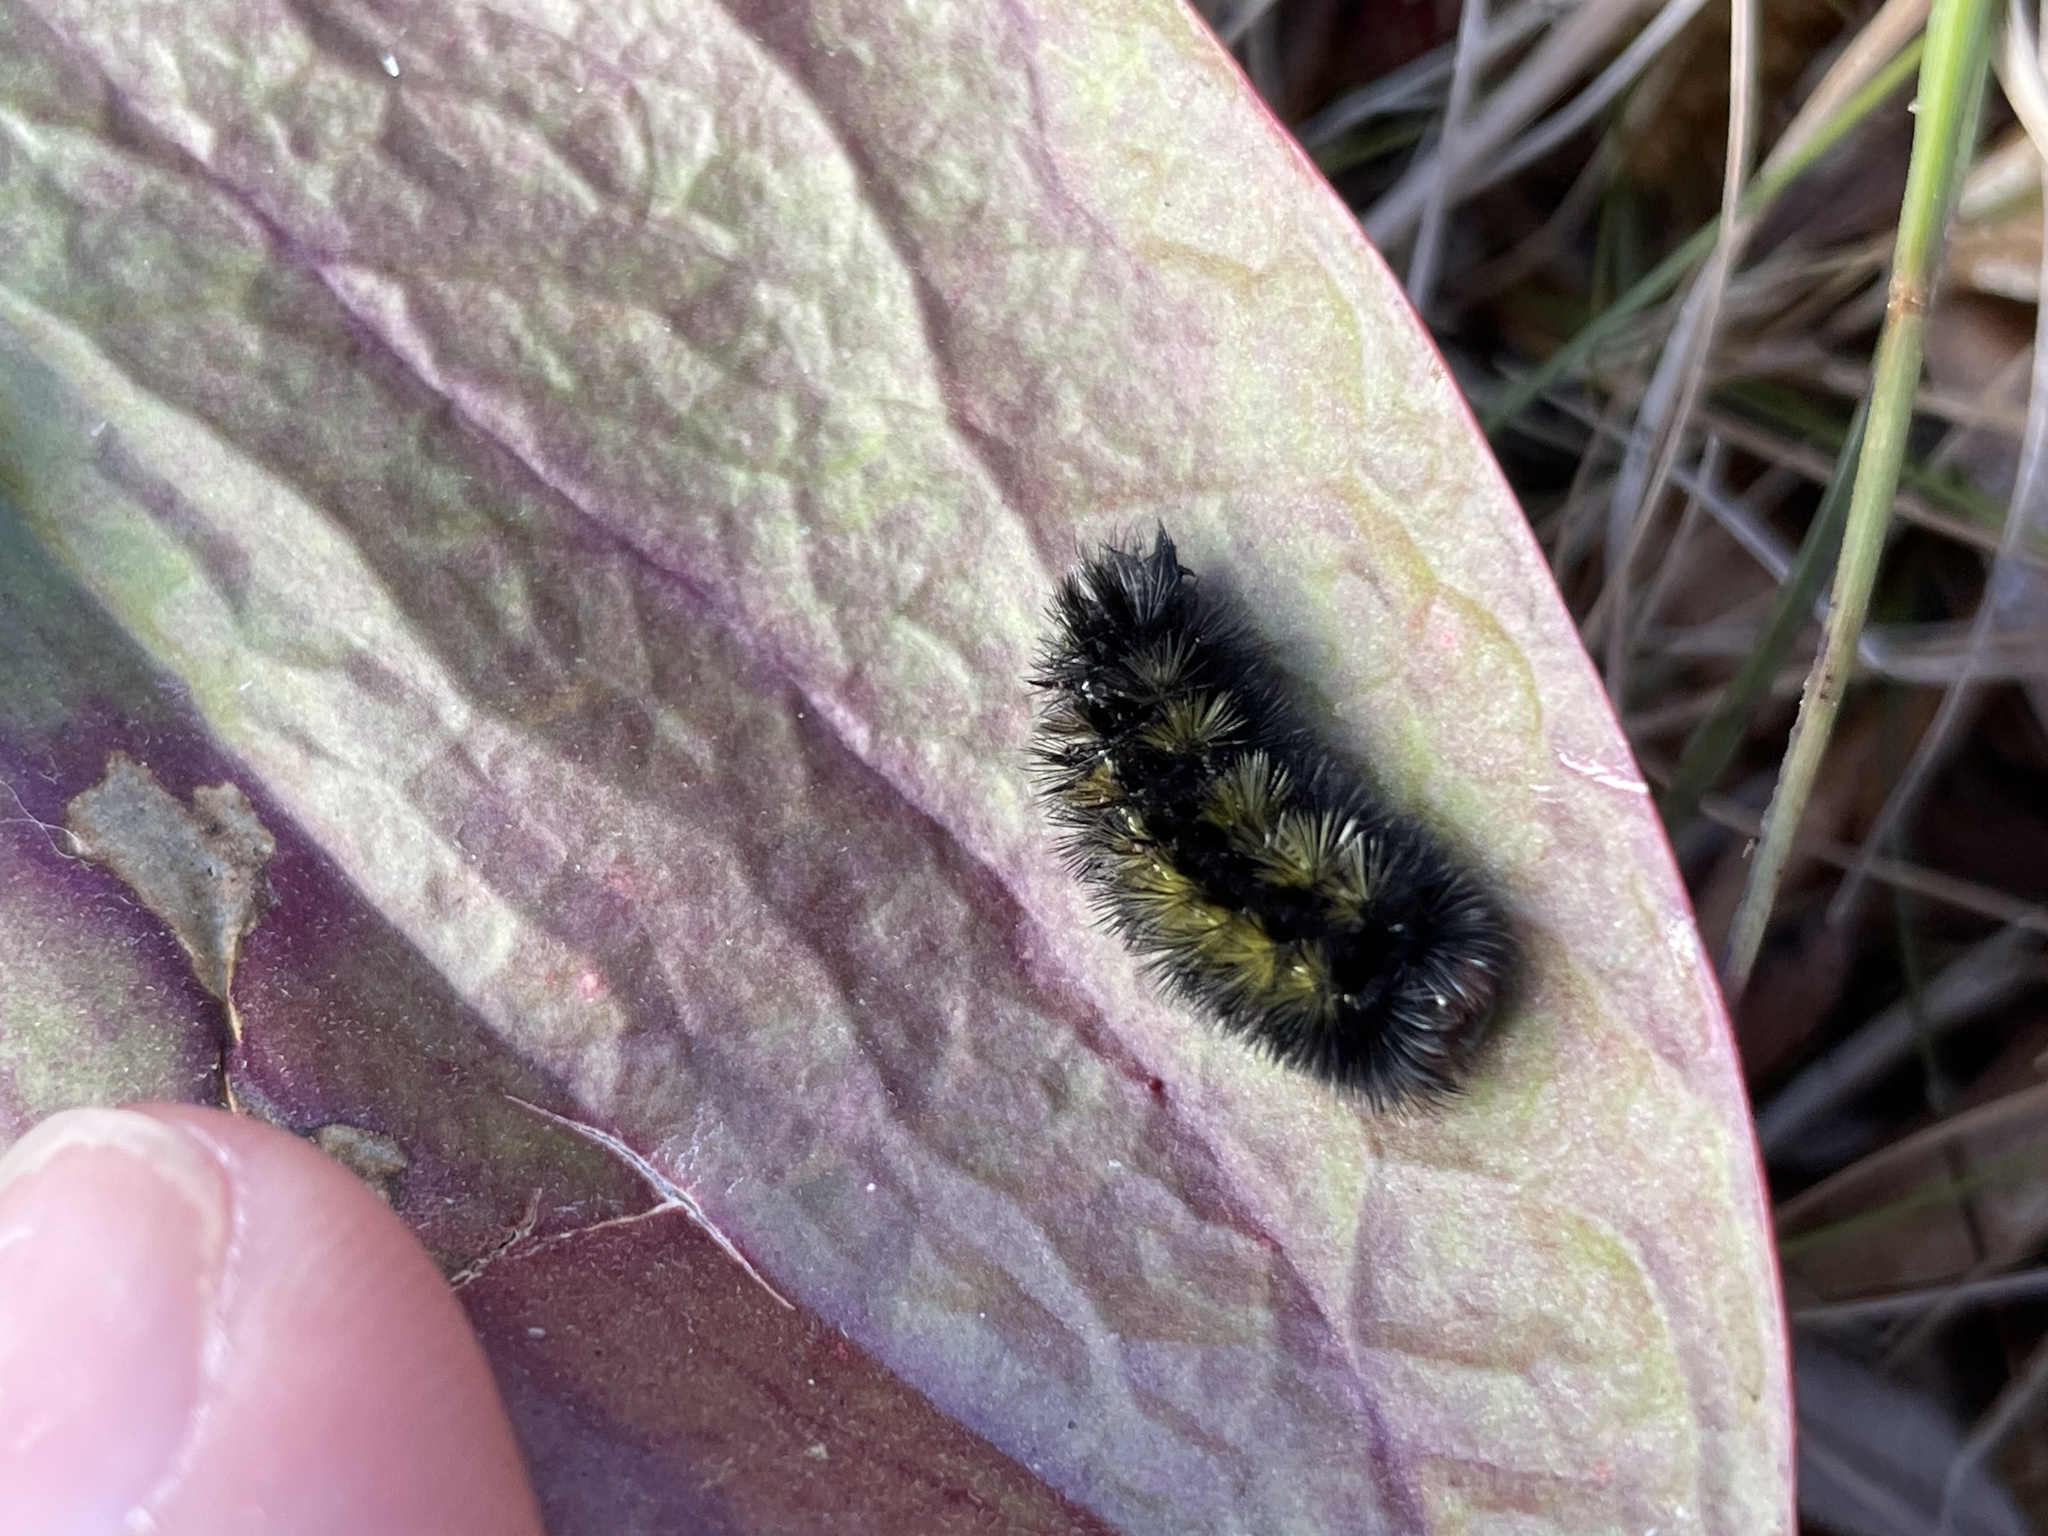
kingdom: Animalia
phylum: Arthropoda
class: Insecta
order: Lepidoptera
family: Erebidae
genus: Ctenucha
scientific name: Ctenucha virginica
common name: Virginia ctenucha moth
